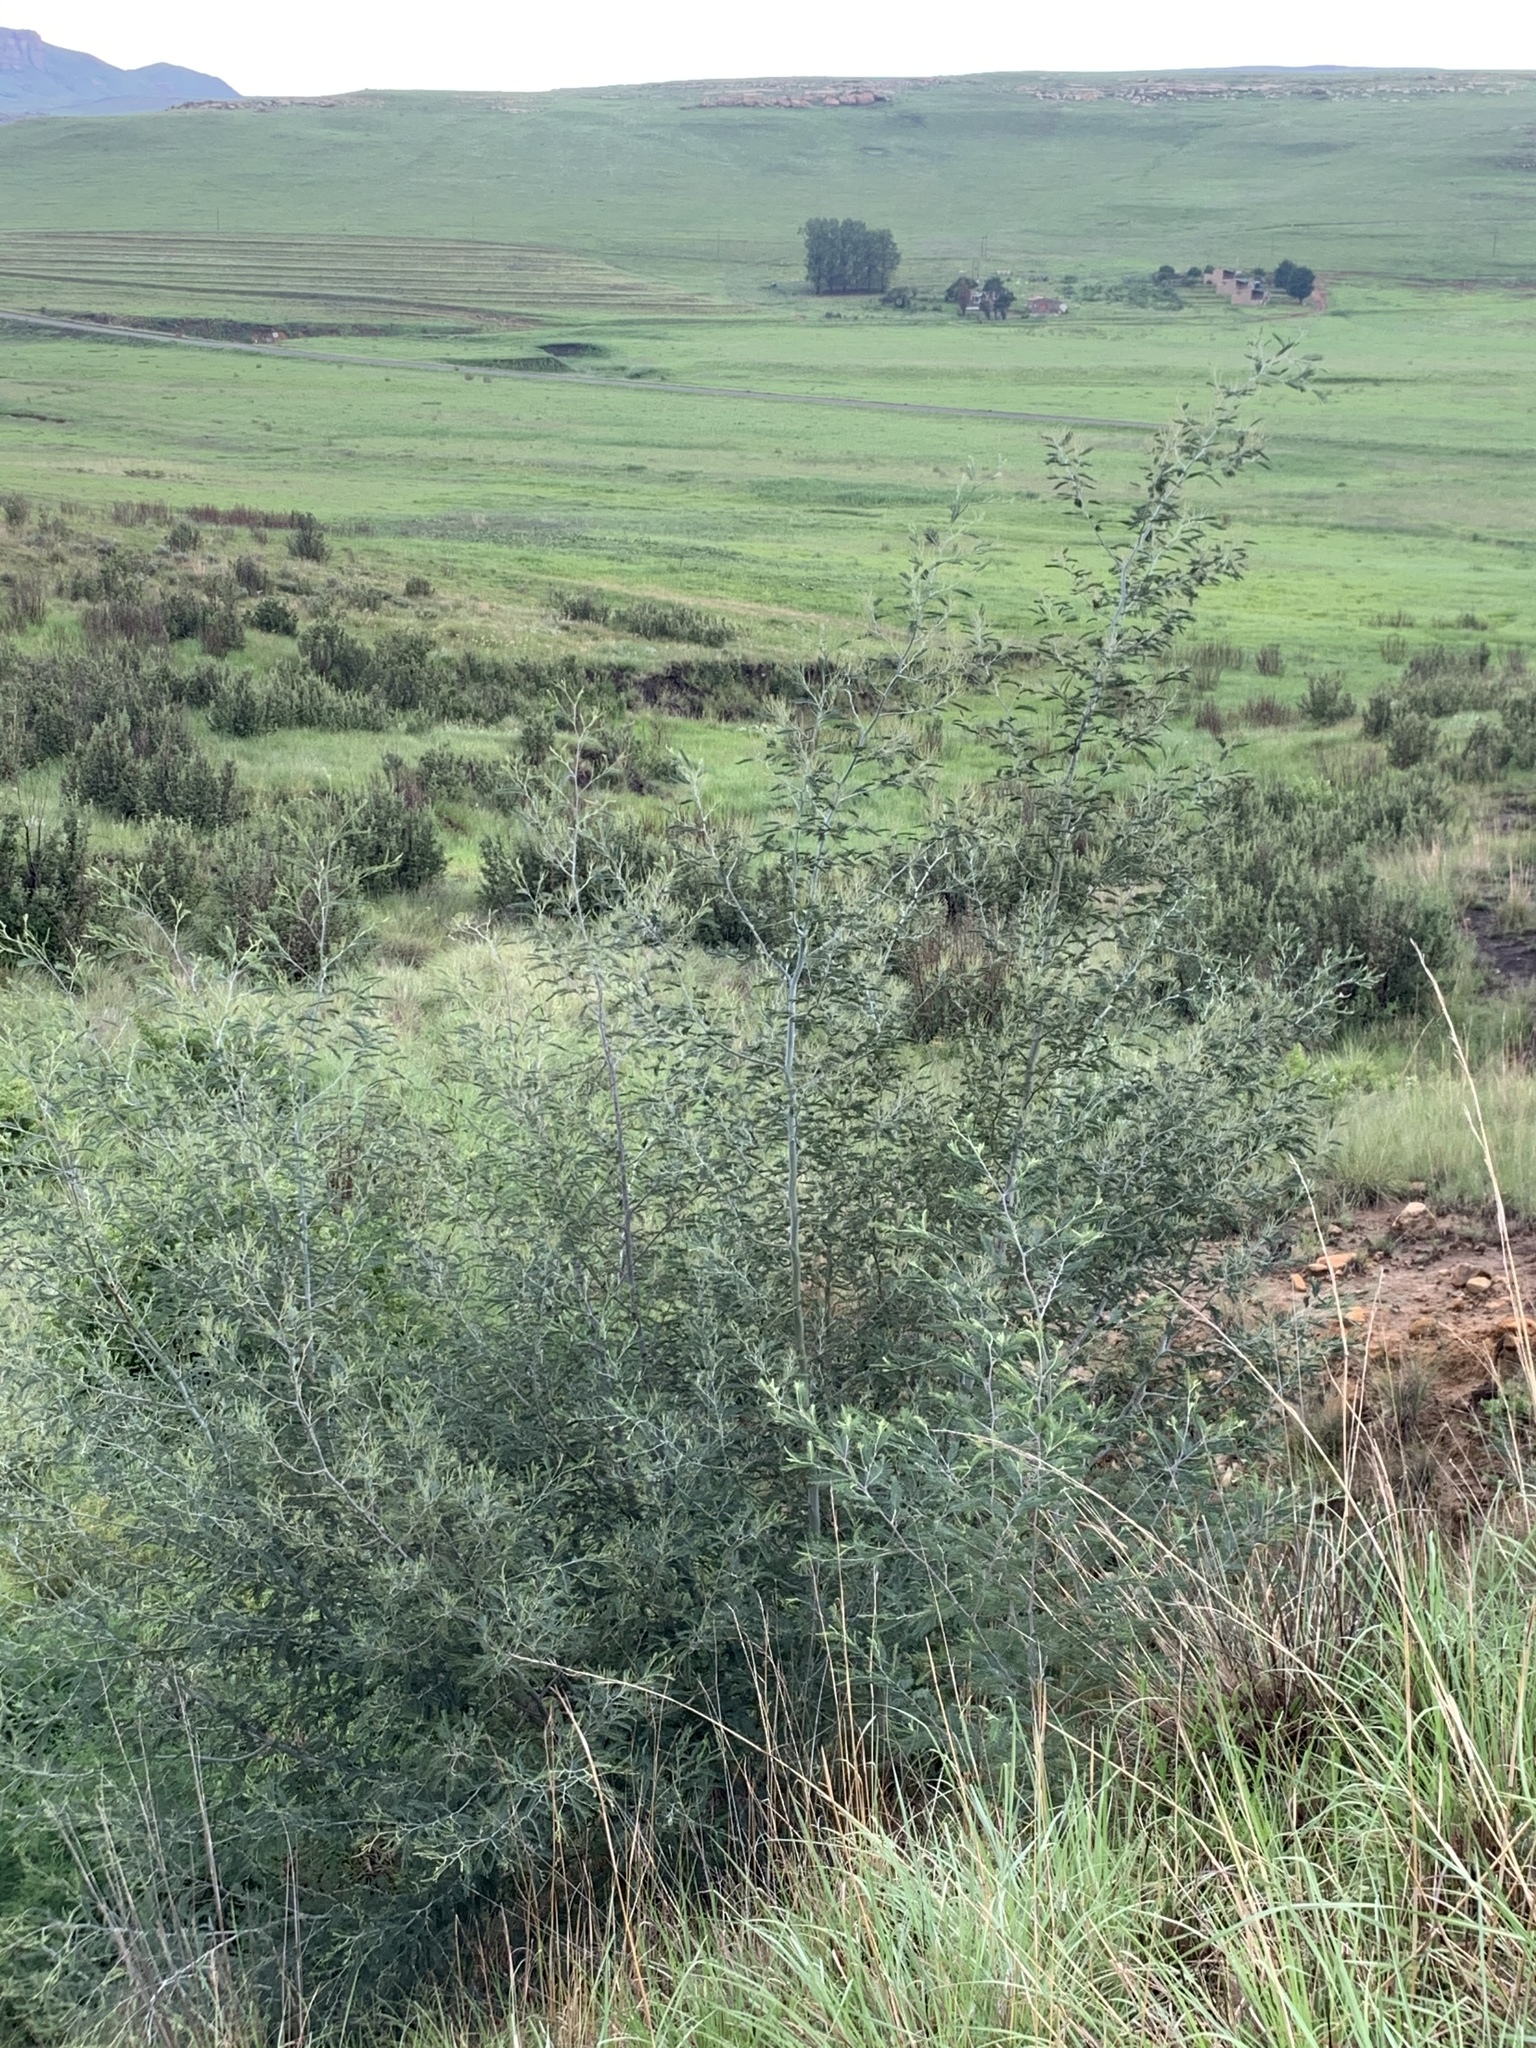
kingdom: Plantae
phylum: Tracheophyta
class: Magnoliopsida
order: Fabales
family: Fabaceae
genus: Acacia
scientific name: Acacia dealbata
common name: Silver wattle
